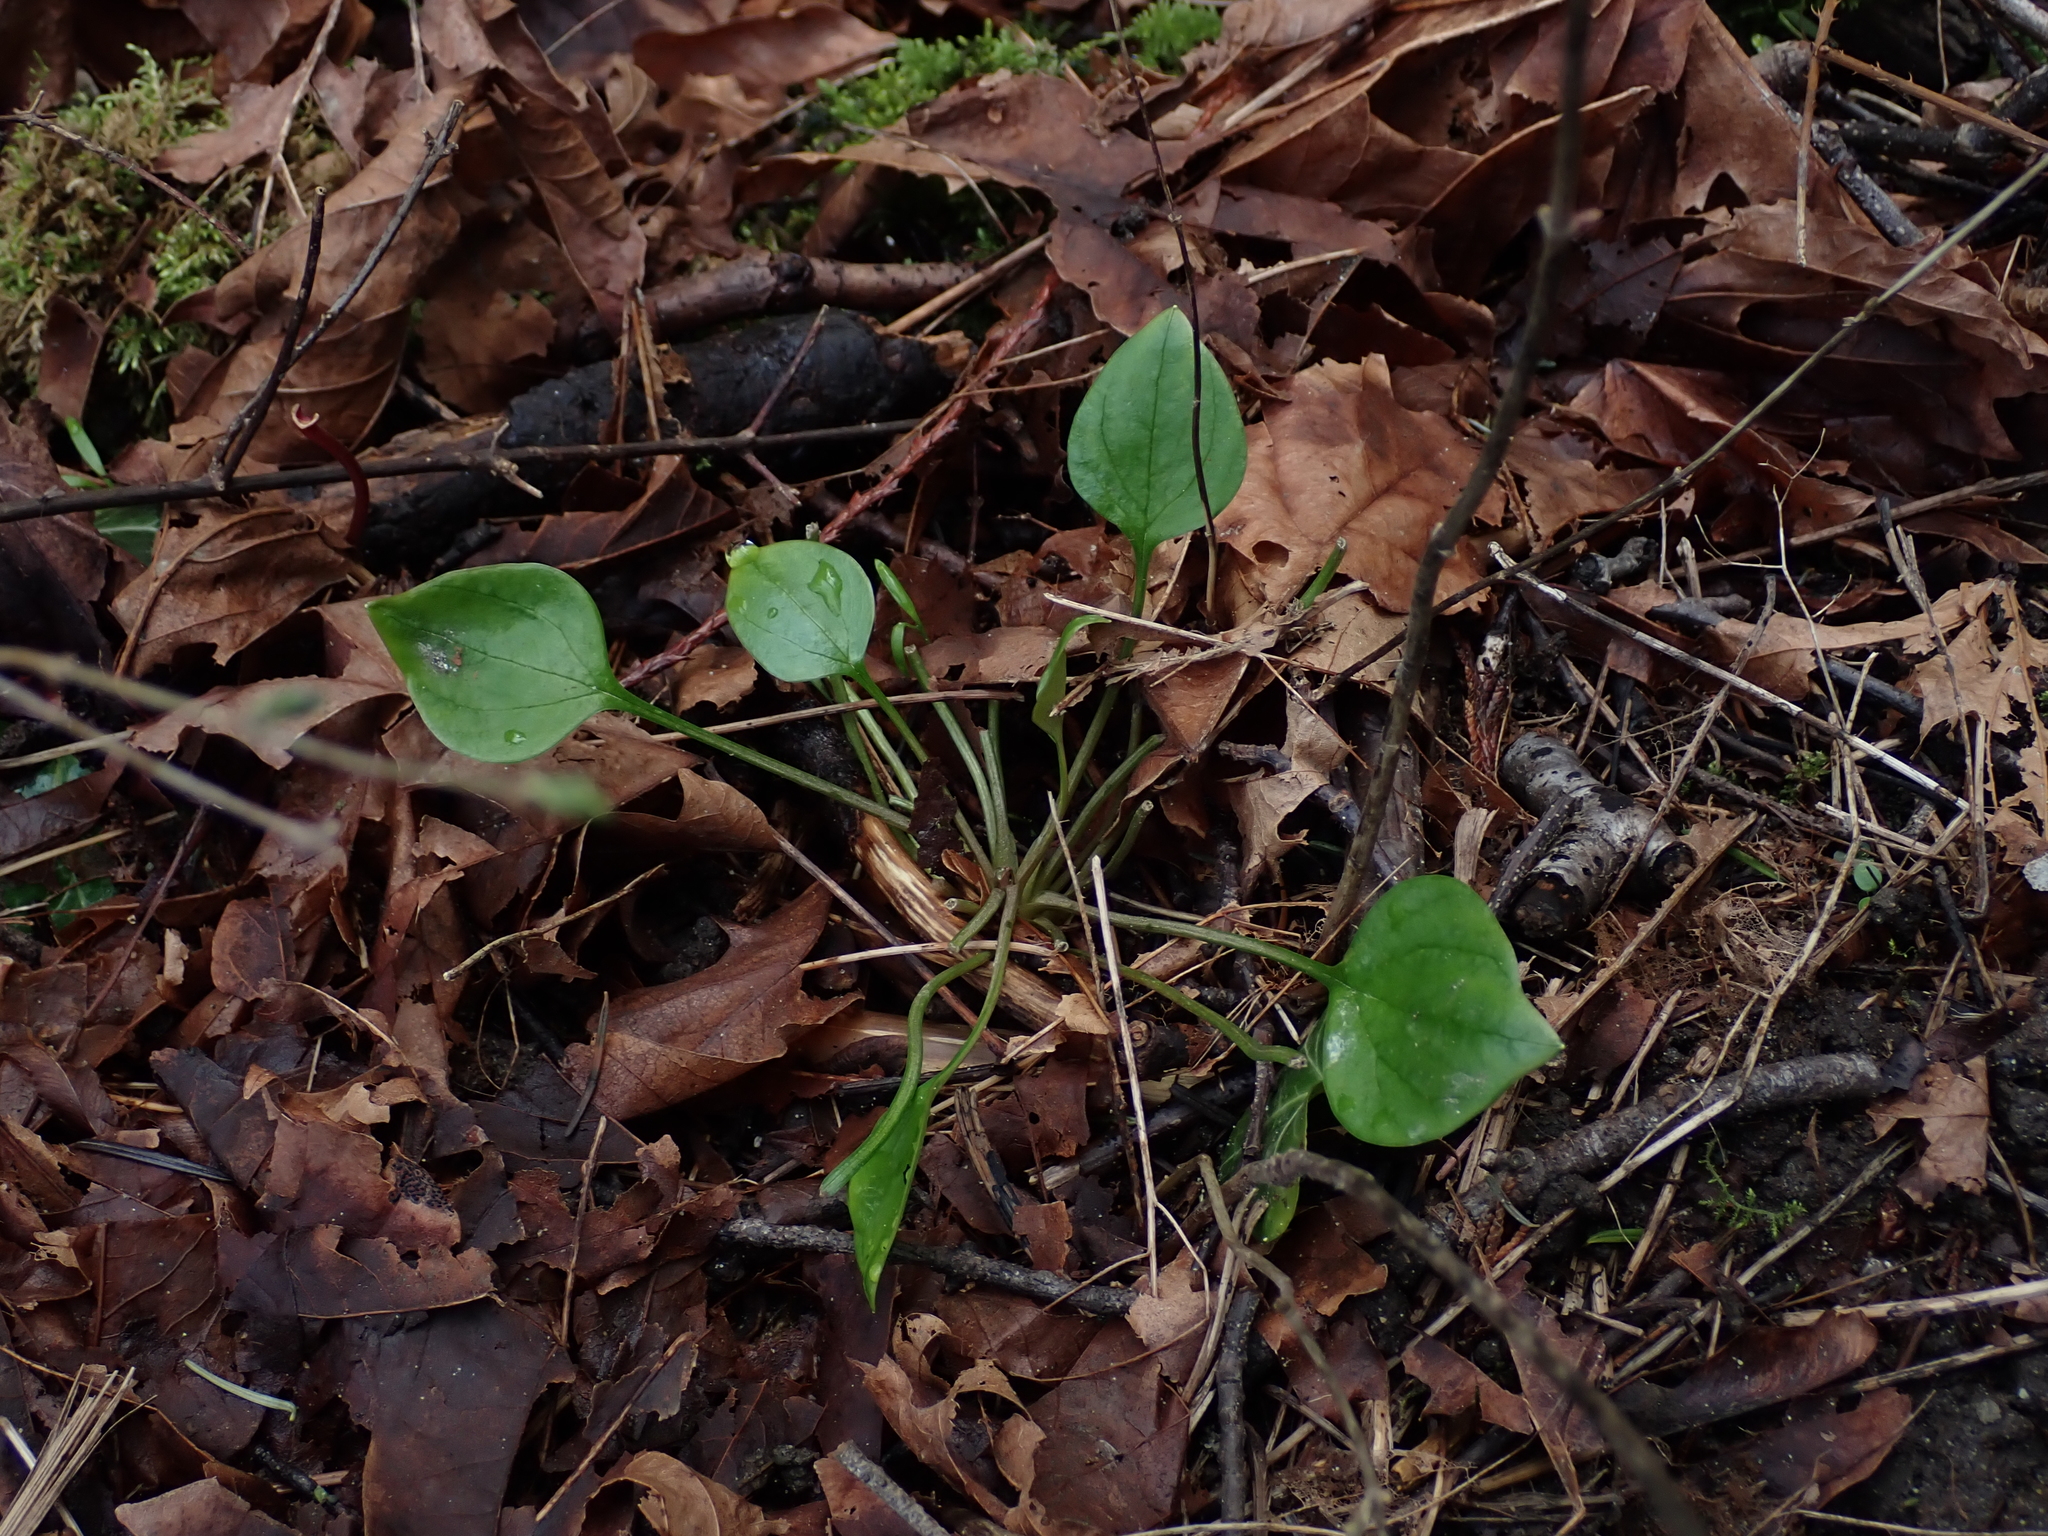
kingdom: Plantae
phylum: Tracheophyta
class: Magnoliopsida
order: Caryophyllales
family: Montiaceae
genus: Claytonia
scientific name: Claytonia sibirica
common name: Pink purslane
